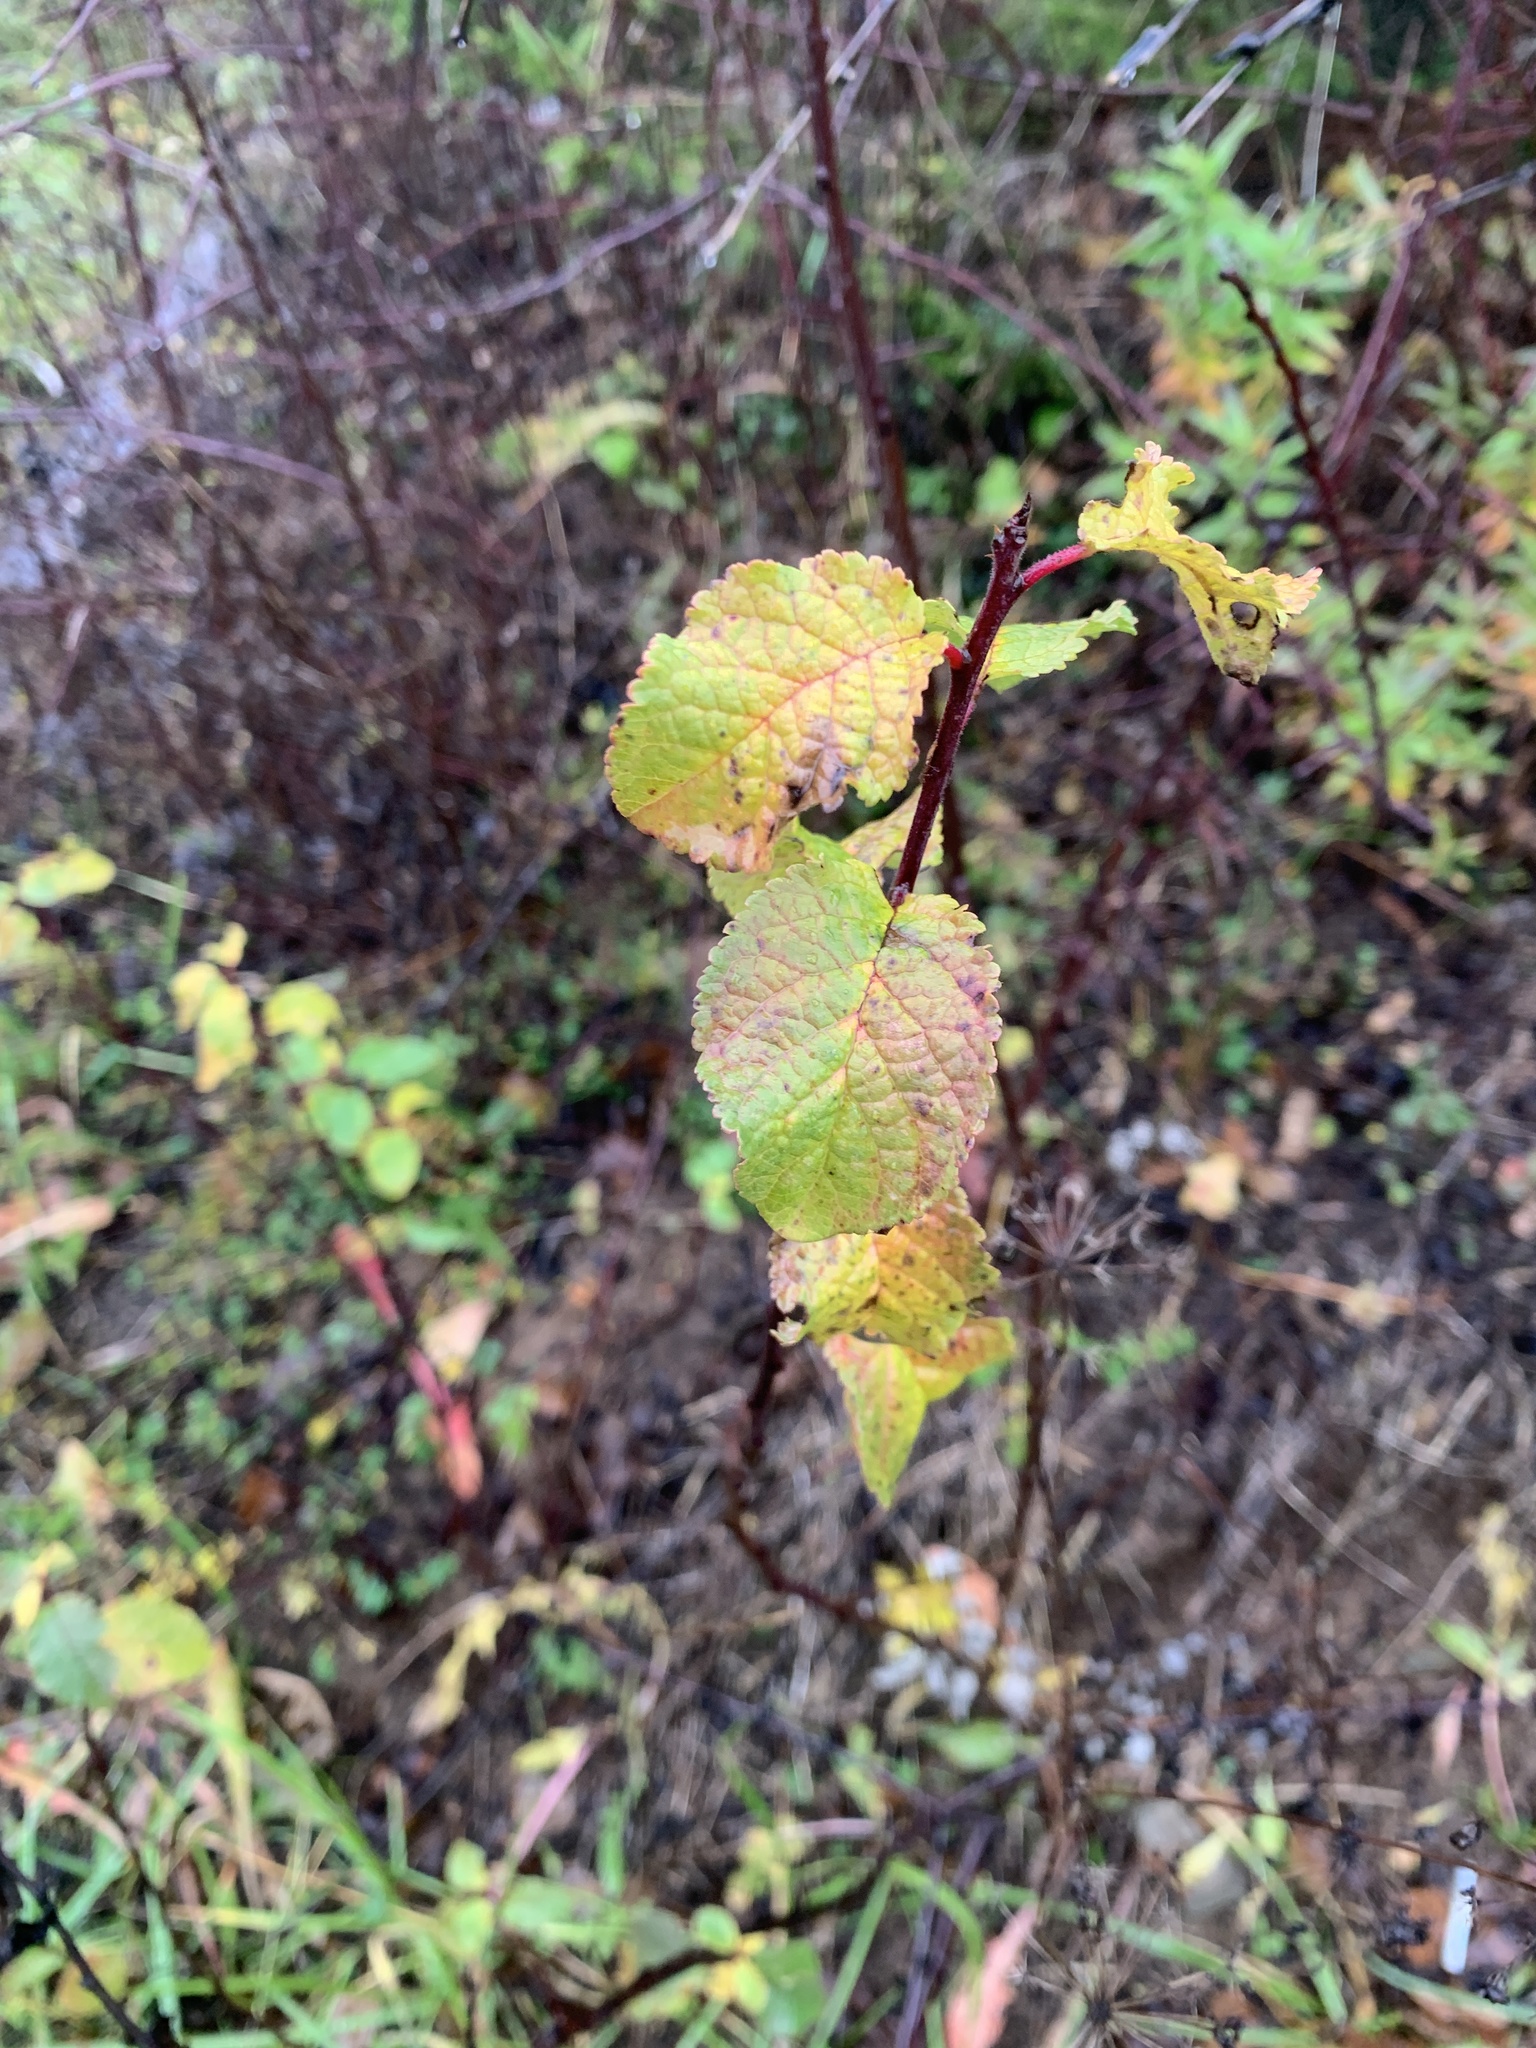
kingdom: Plantae
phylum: Tracheophyta
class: Magnoliopsida
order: Rosales
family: Rosaceae
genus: Prunus
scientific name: Prunus padus
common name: Bird cherry
